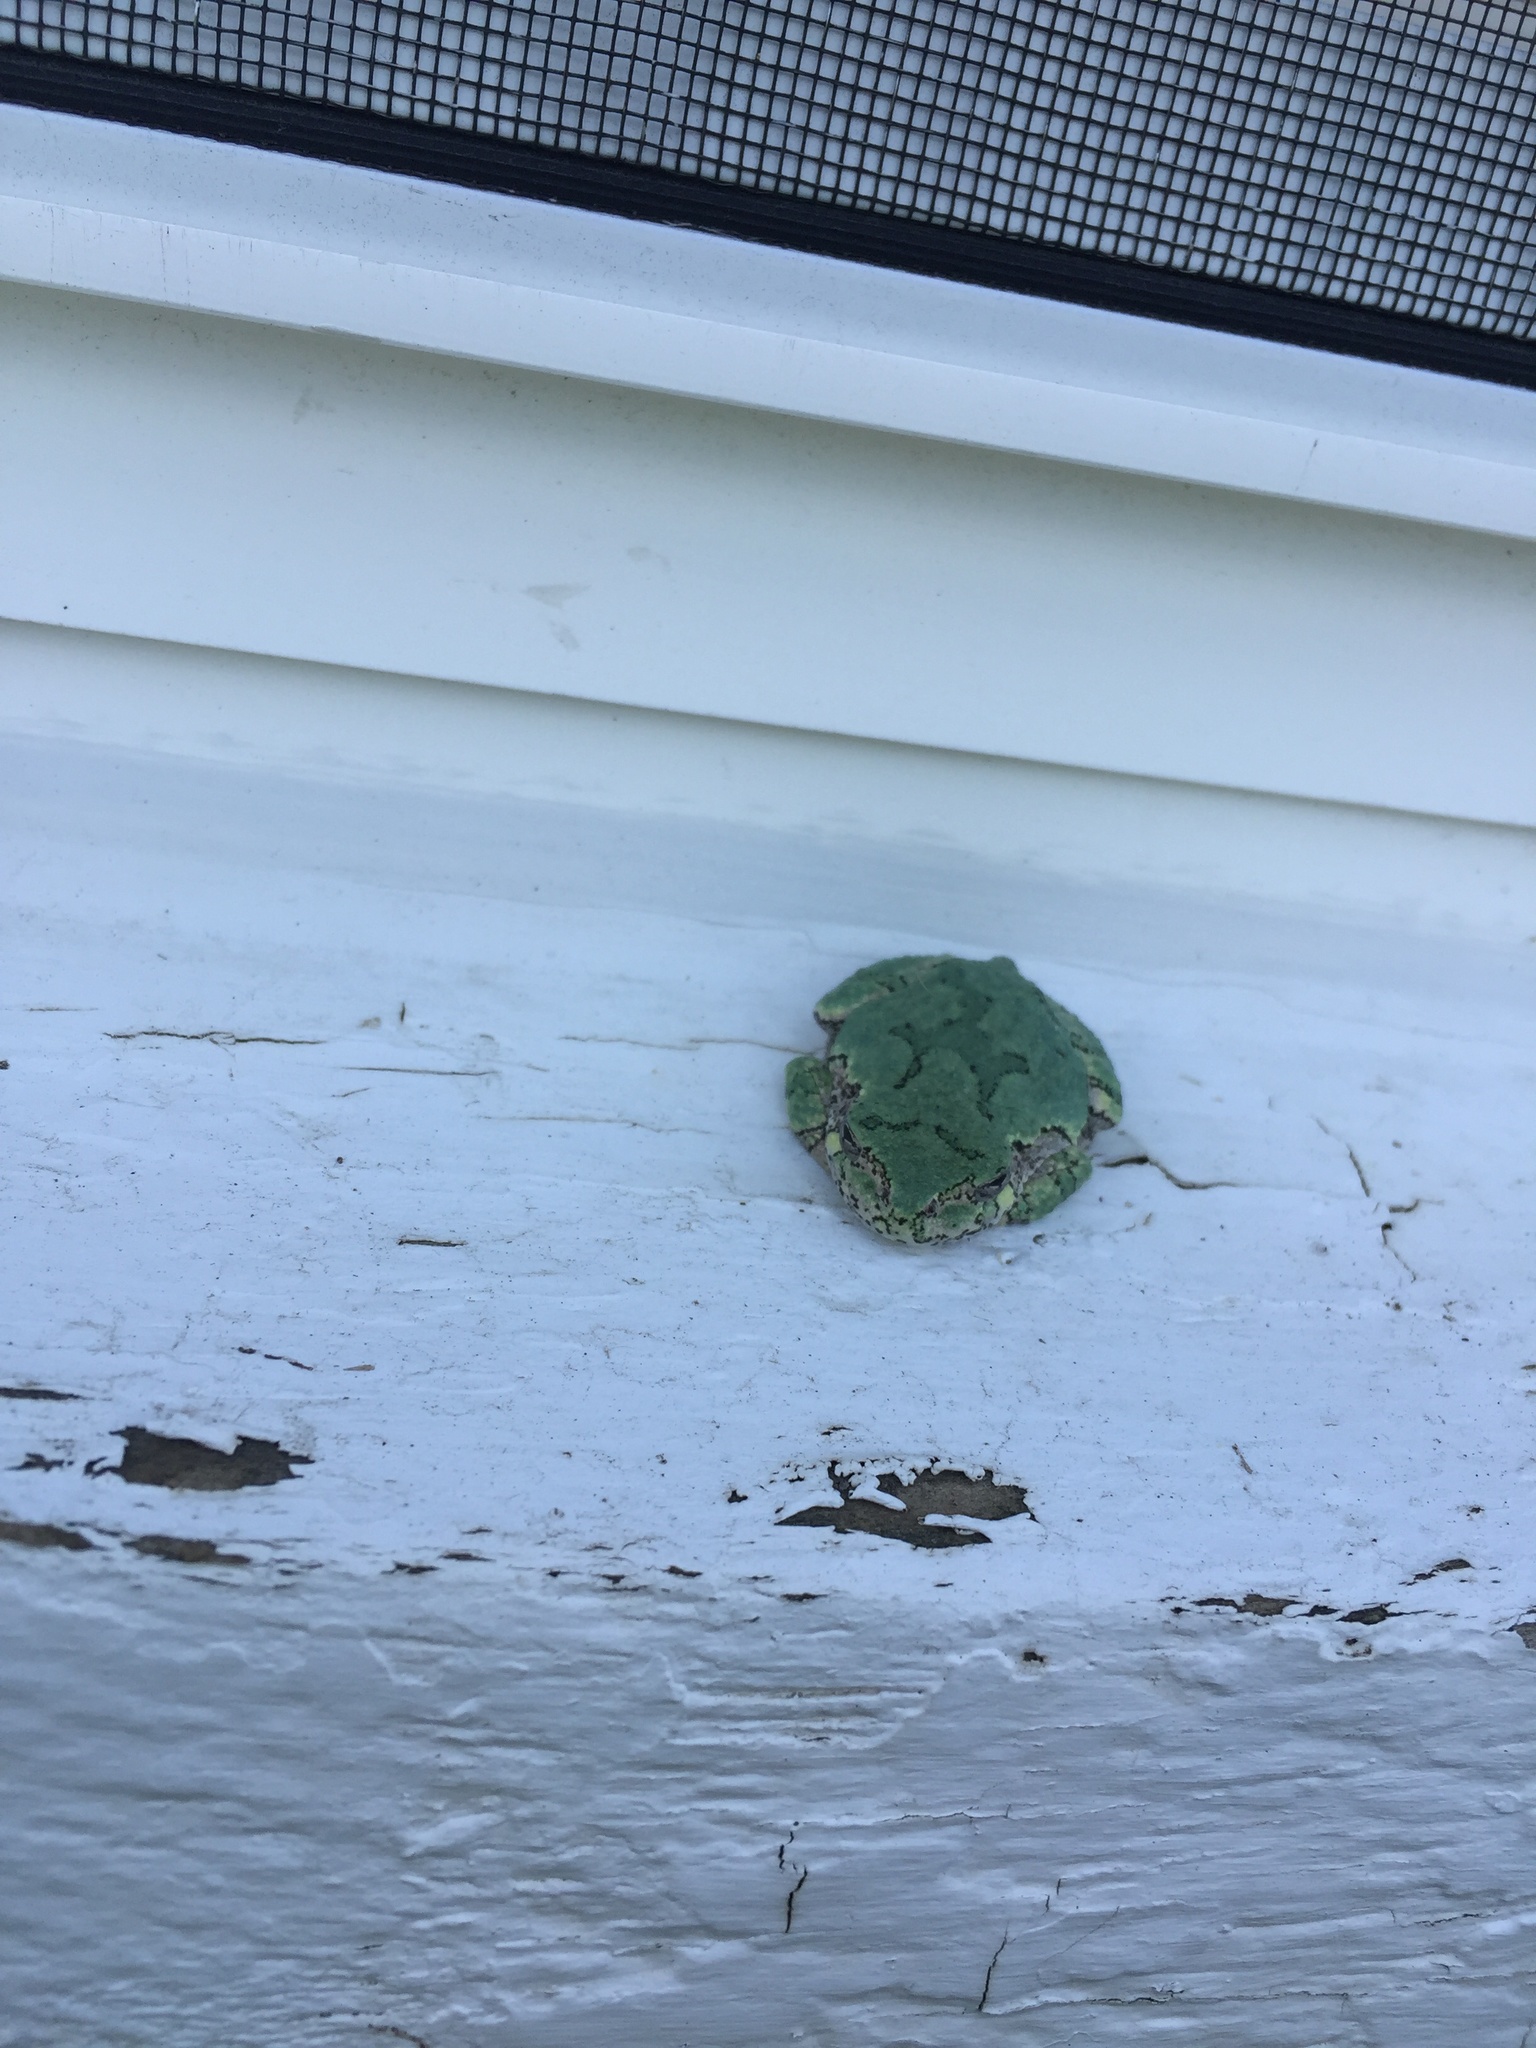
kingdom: Animalia
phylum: Chordata
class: Amphibia
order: Anura
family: Hylidae
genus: Dryophytes
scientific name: Dryophytes versicolor
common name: Gray treefrog
